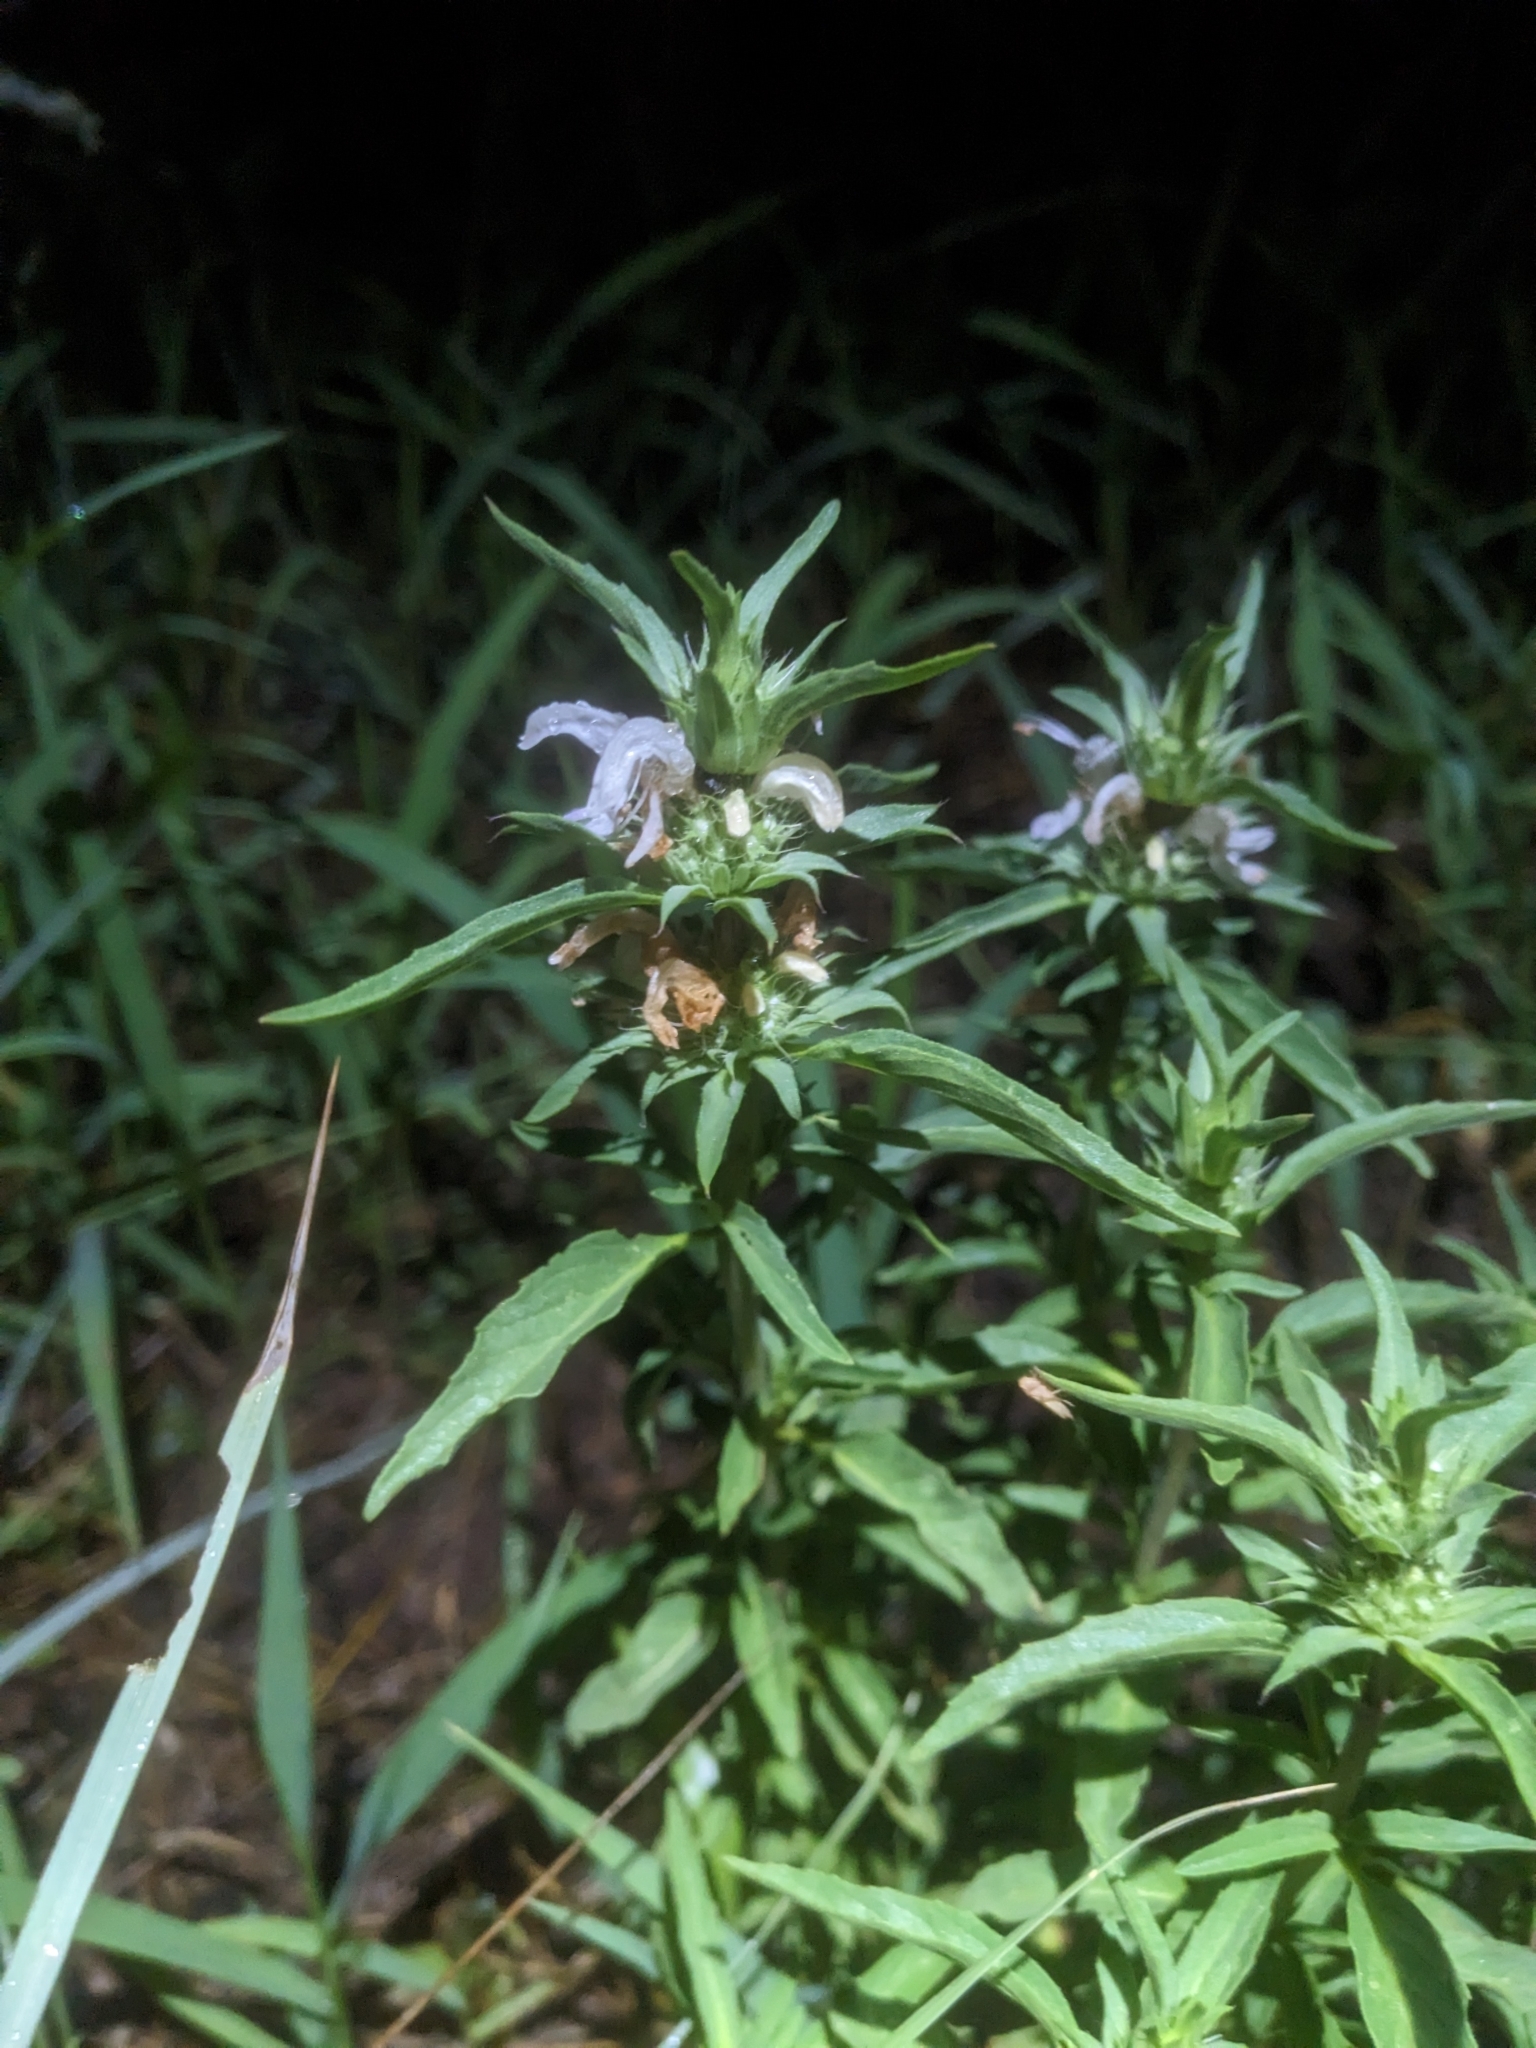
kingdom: Plantae
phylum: Tracheophyta
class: Magnoliopsida
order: Lamiales
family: Lamiaceae
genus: Monarda
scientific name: Monarda citriodora
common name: Lemon beebalm
